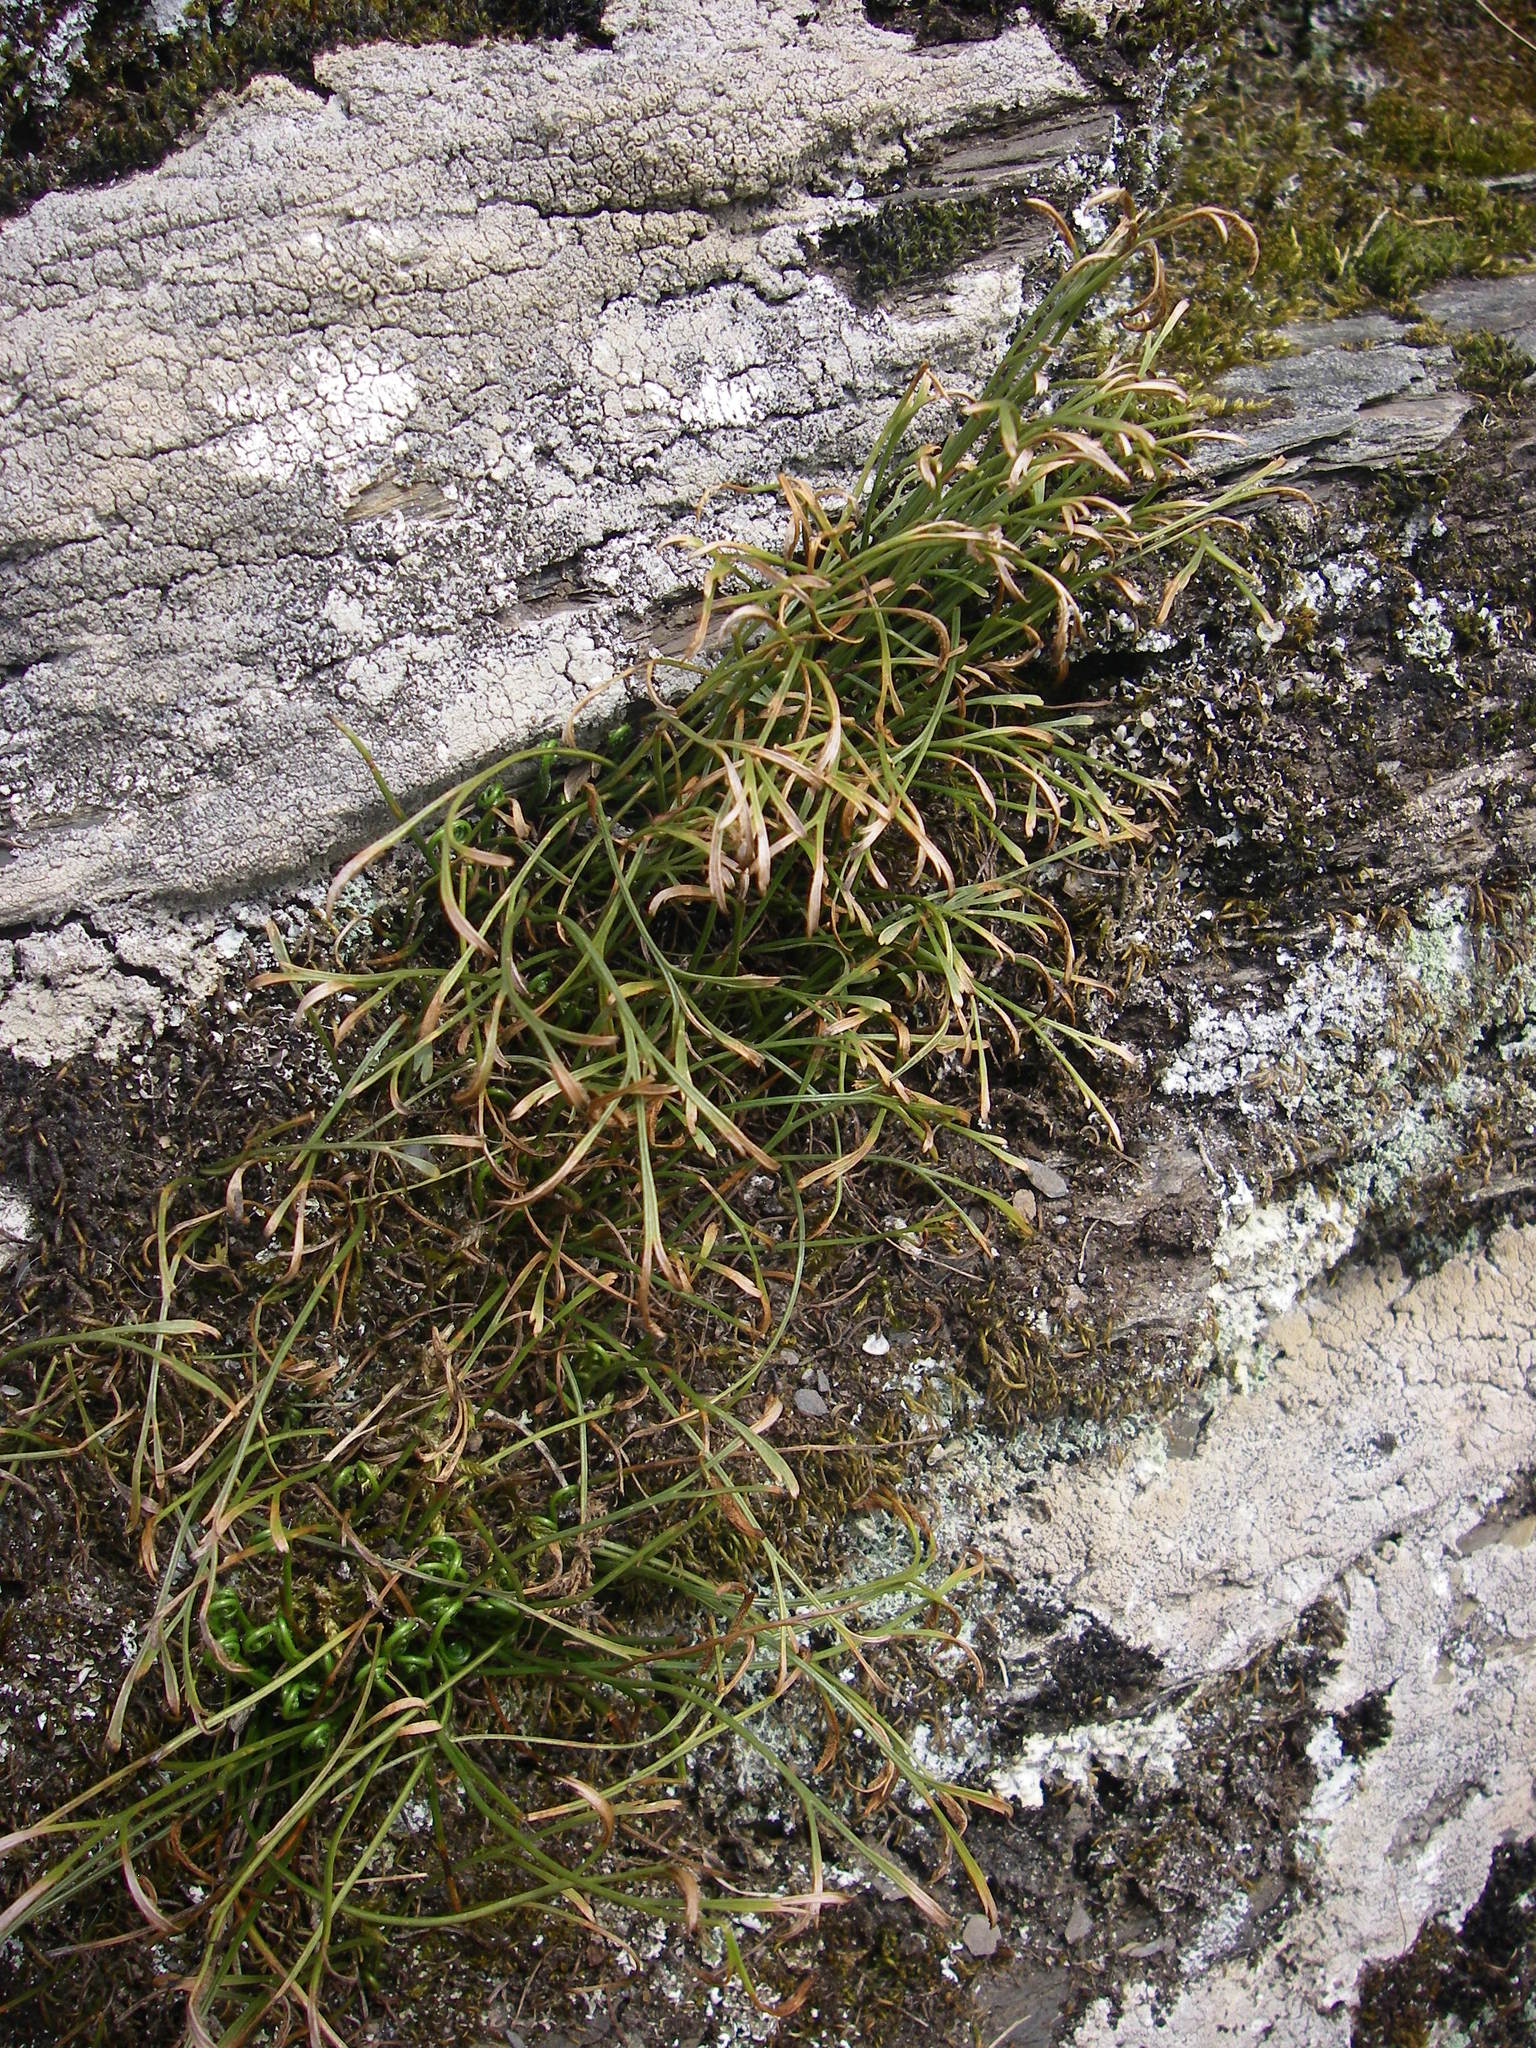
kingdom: Plantae
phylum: Tracheophyta
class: Polypodiopsida
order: Polypodiales
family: Aspleniaceae
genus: Asplenium
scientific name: Asplenium septentrionale
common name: Forked spleenwort
